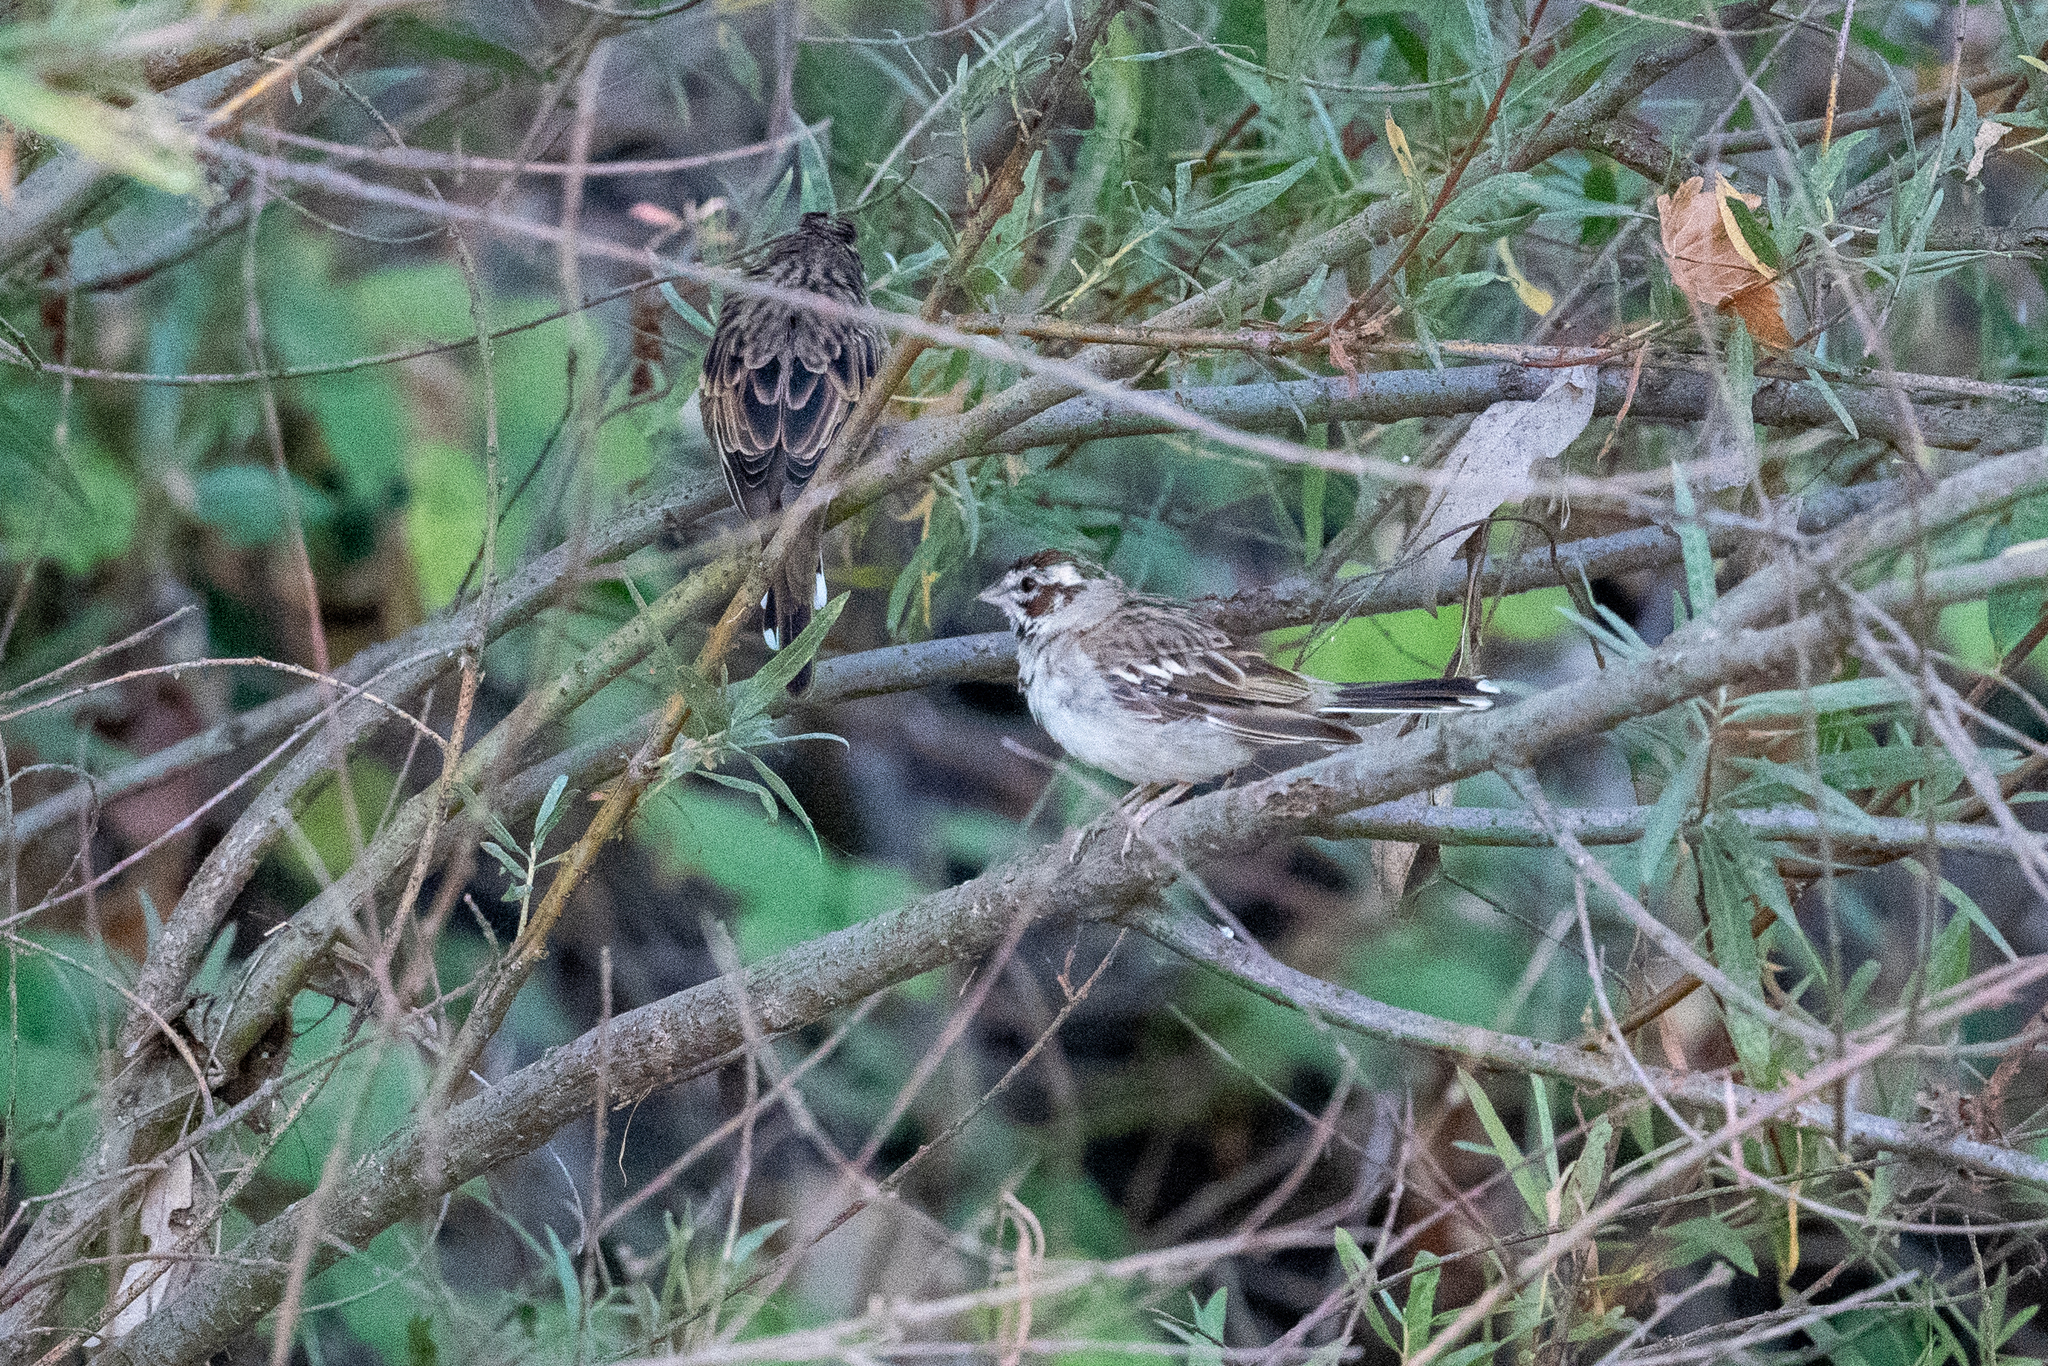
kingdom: Animalia
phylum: Chordata
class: Aves
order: Passeriformes
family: Passerellidae
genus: Chondestes
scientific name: Chondestes grammacus
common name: Lark sparrow
